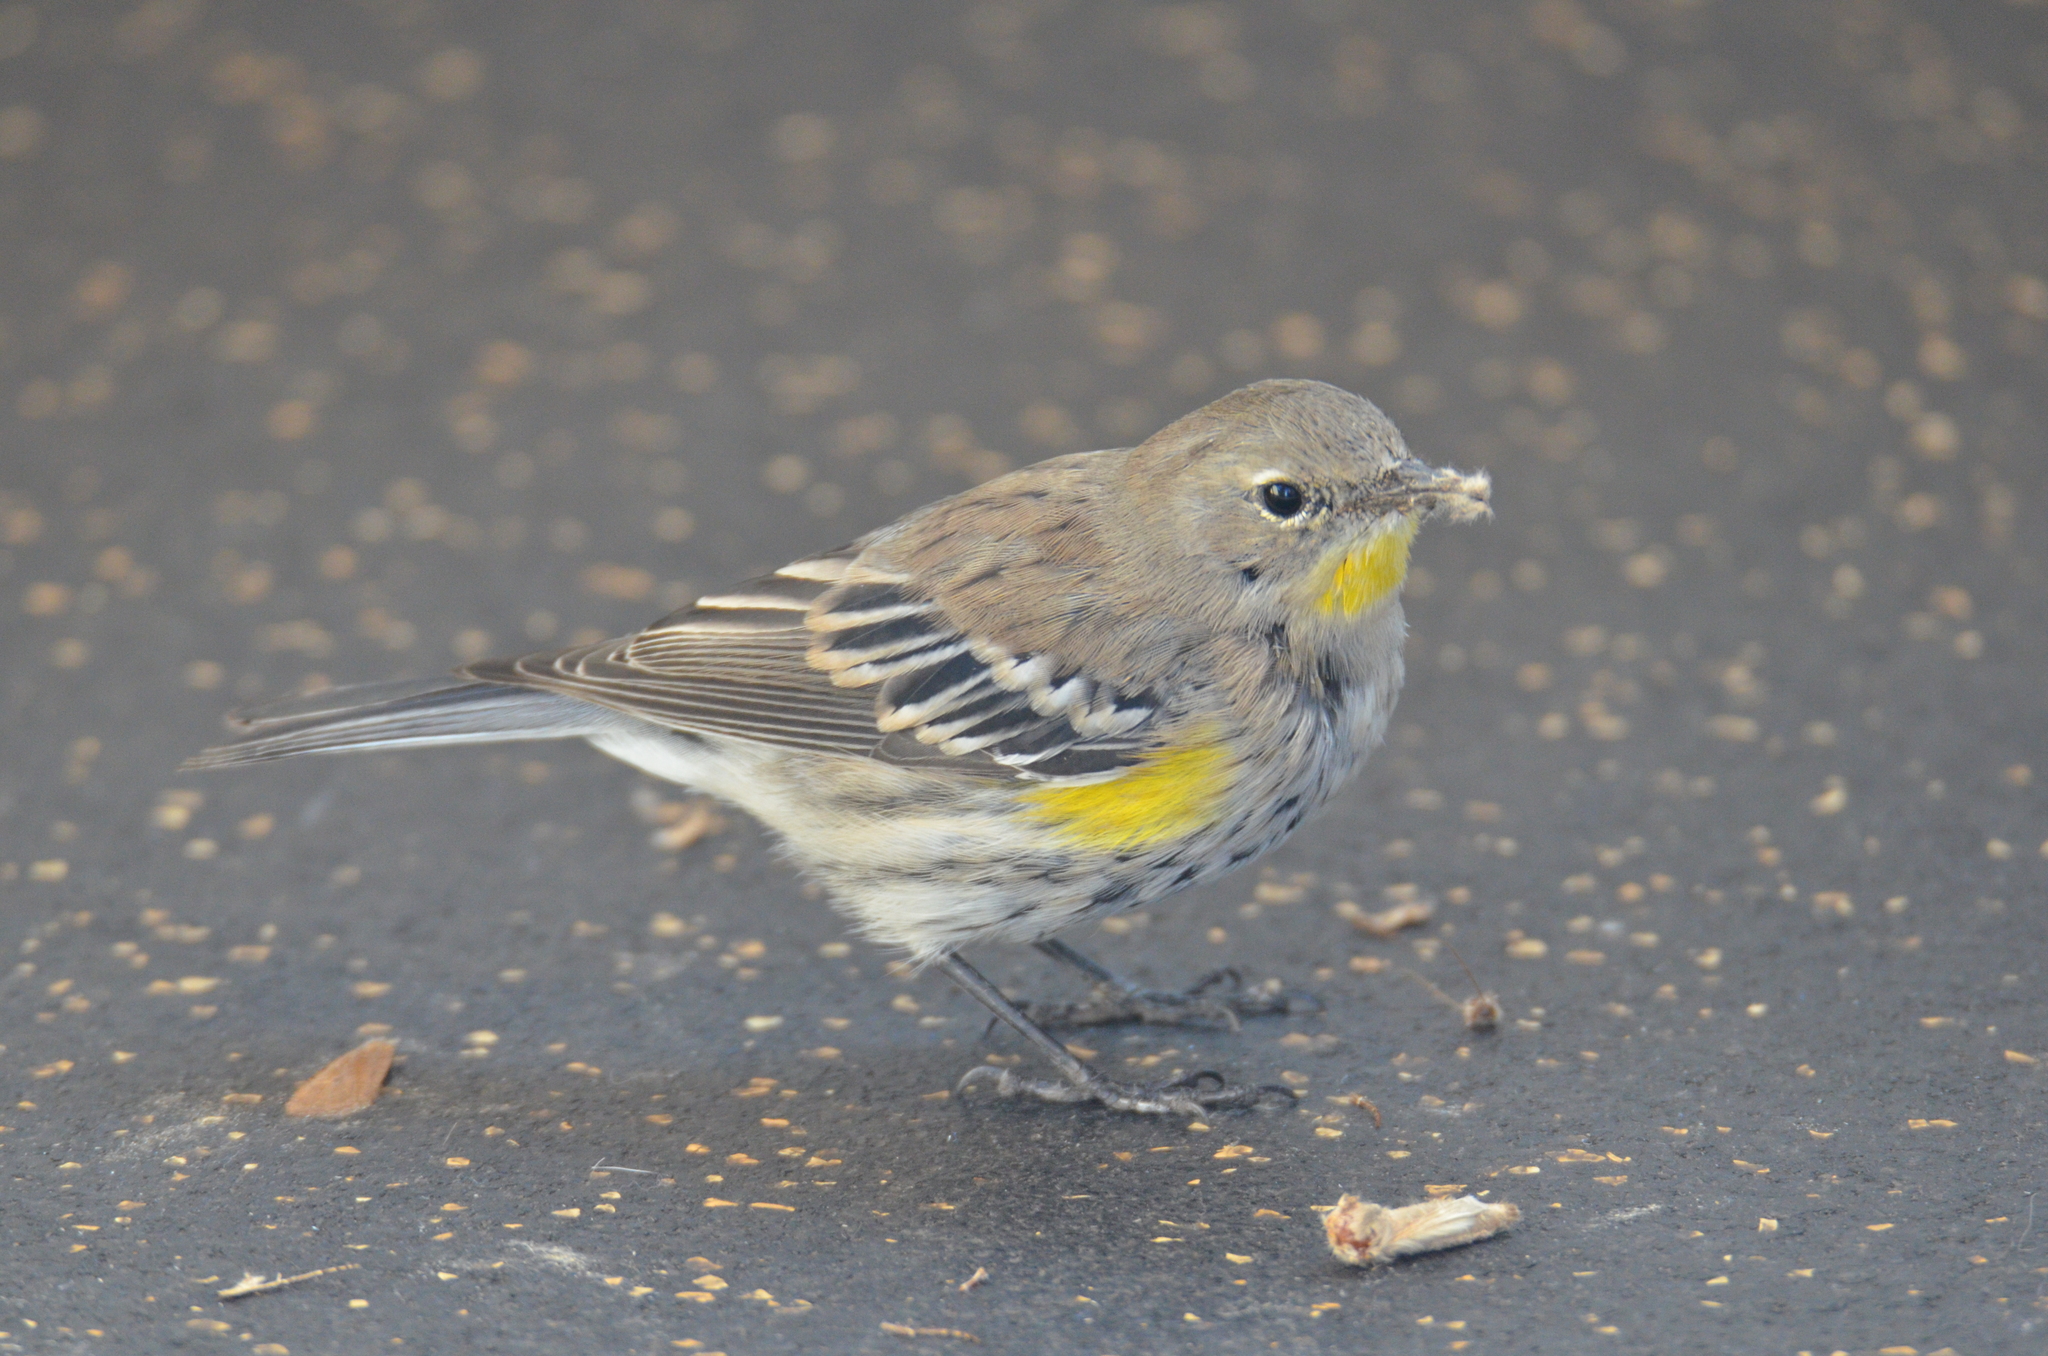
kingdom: Animalia
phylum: Chordata
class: Aves
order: Passeriformes
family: Parulidae
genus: Setophaga
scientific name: Setophaga auduboni
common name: Audubon's warbler
